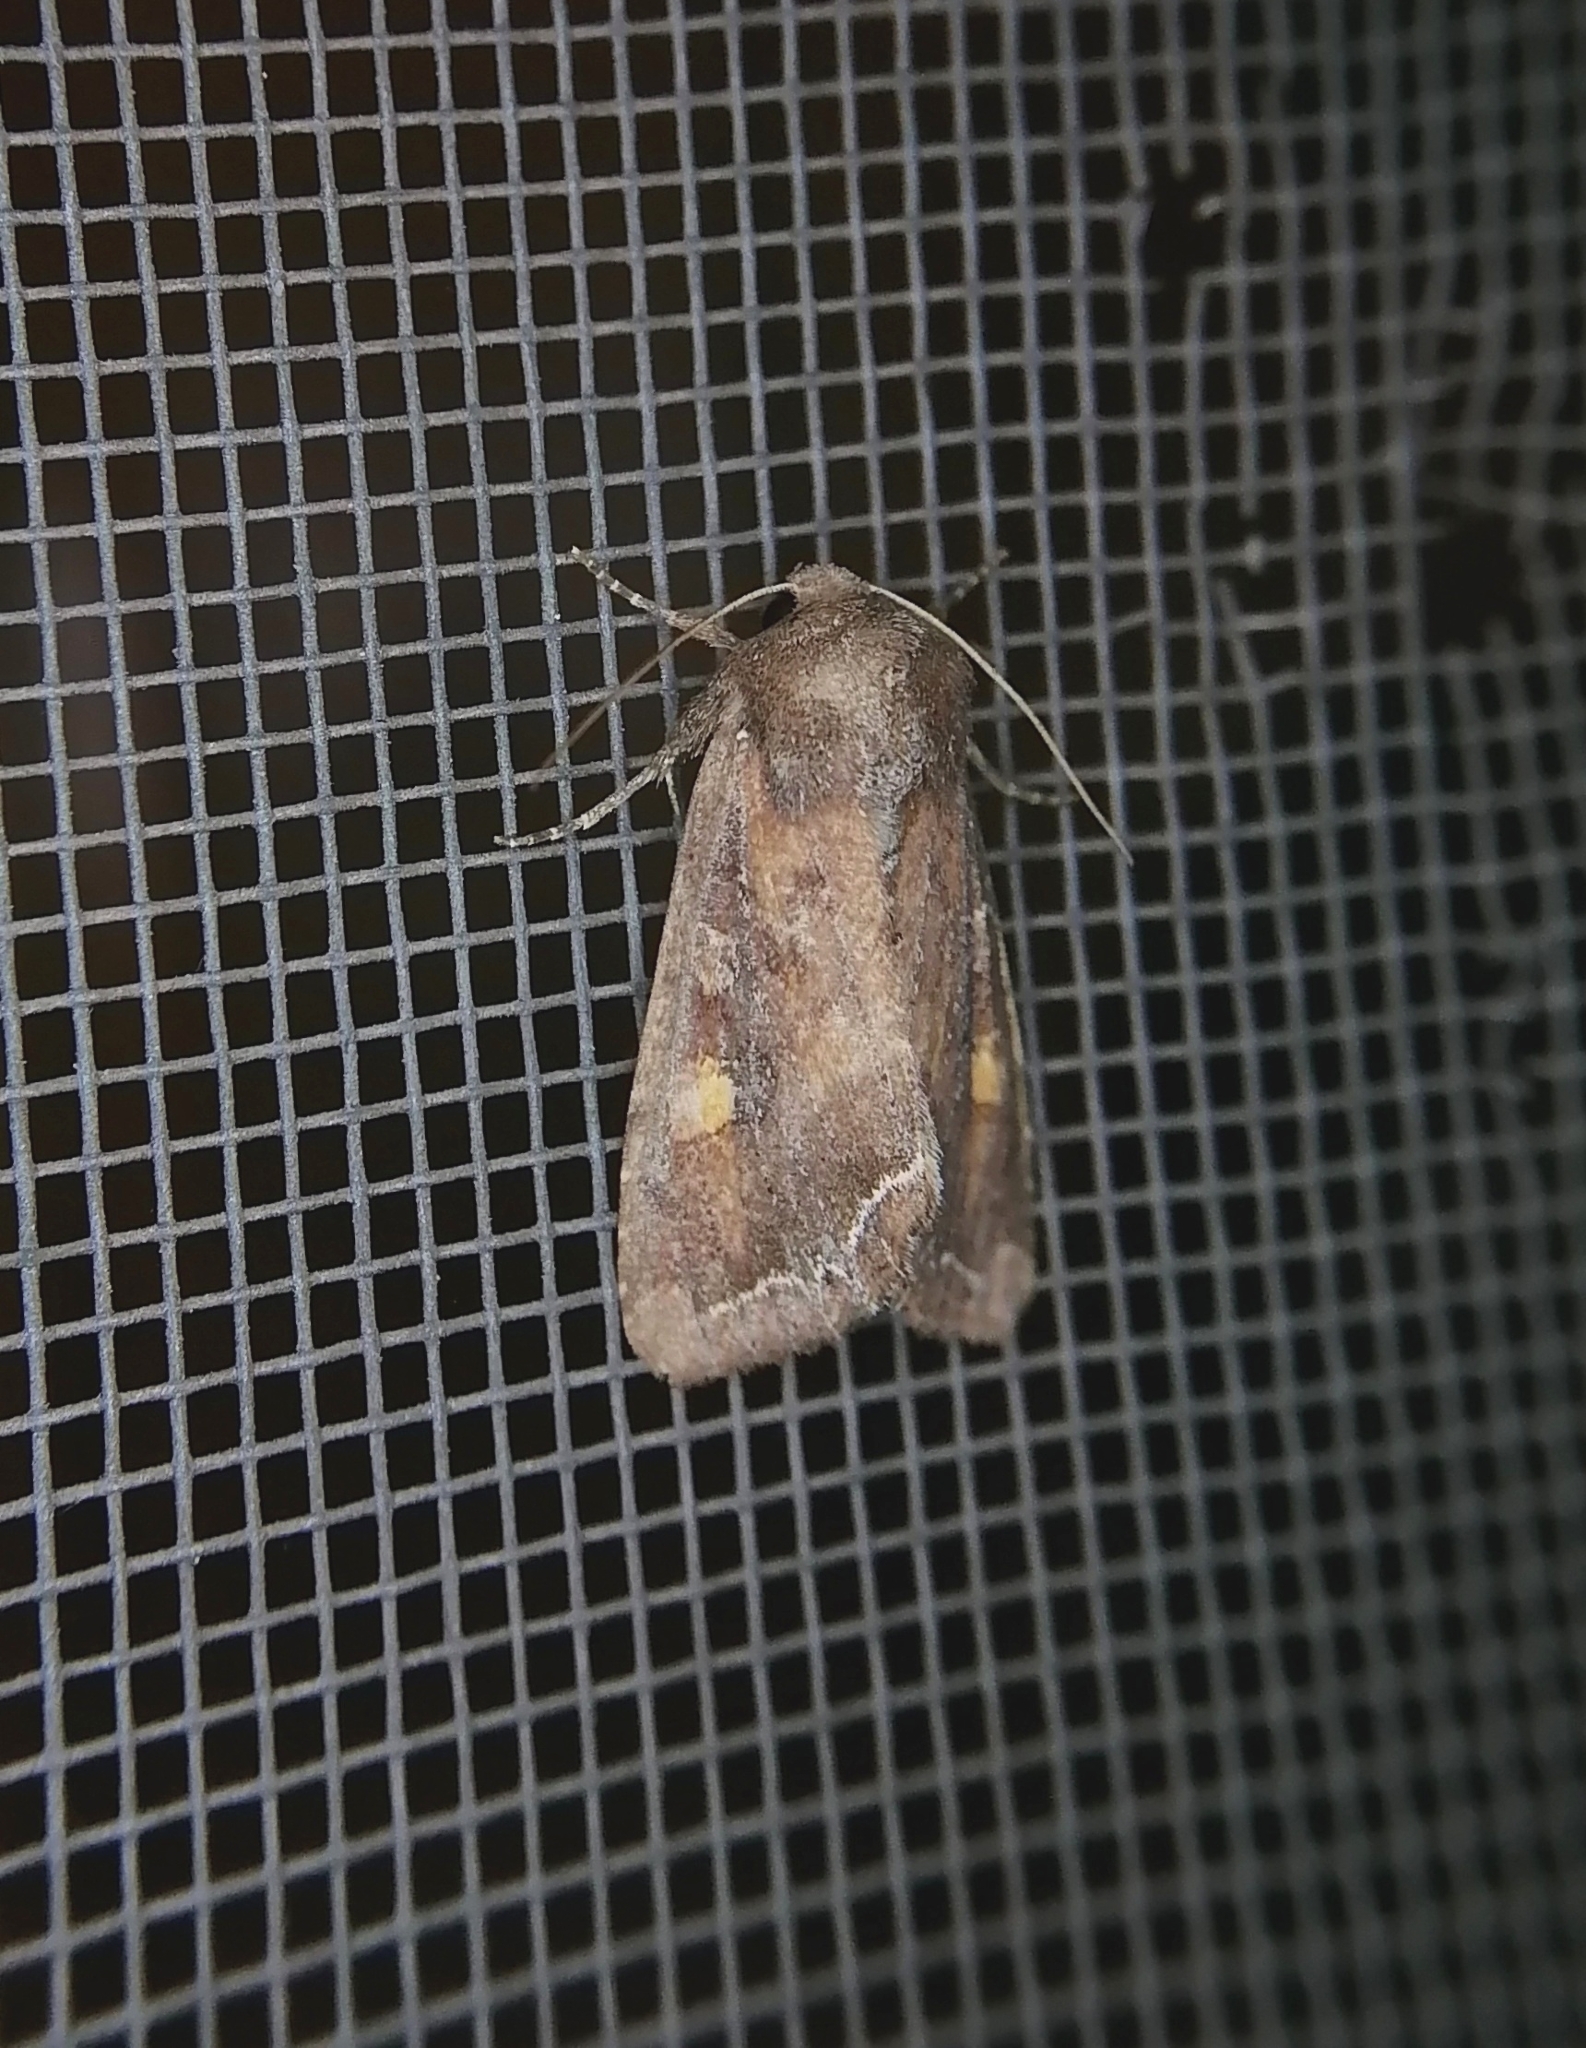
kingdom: Animalia
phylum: Arthropoda
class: Insecta
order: Lepidoptera
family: Noctuidae
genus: Lacanobia
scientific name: Lacanobia oleracea
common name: Bright-line brown-eye
